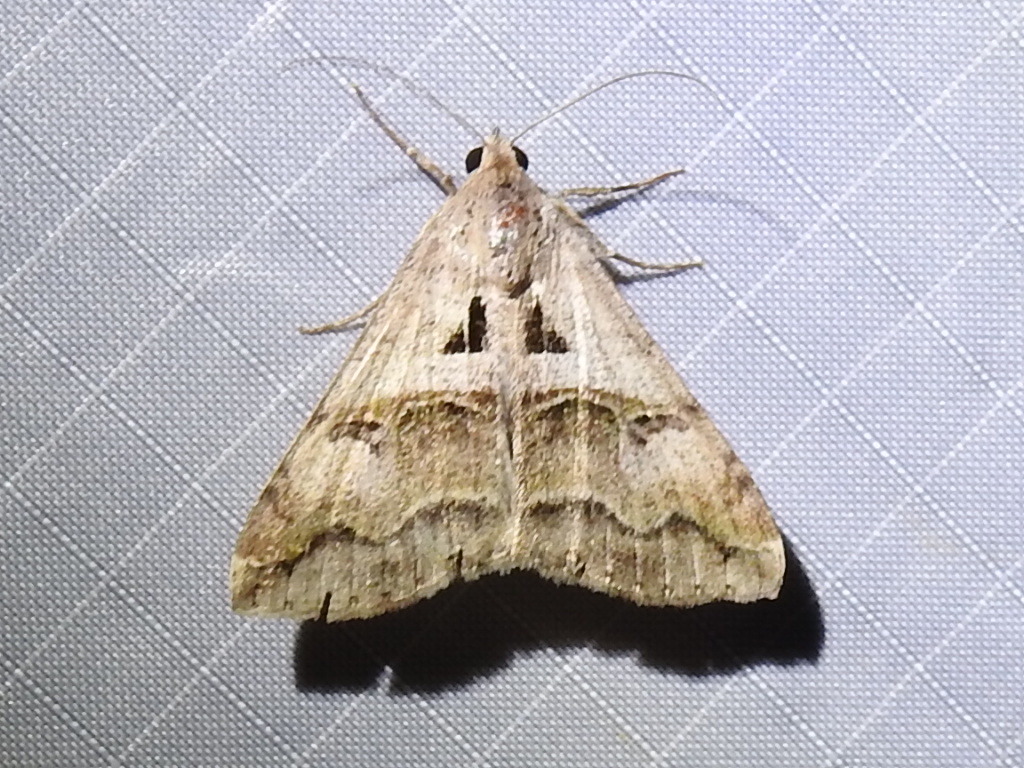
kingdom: Animalia
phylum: Arthropoda
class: Insecta
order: Lepidoptera
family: Erebidae
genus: Melipotis
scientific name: Melipotis cellaris
